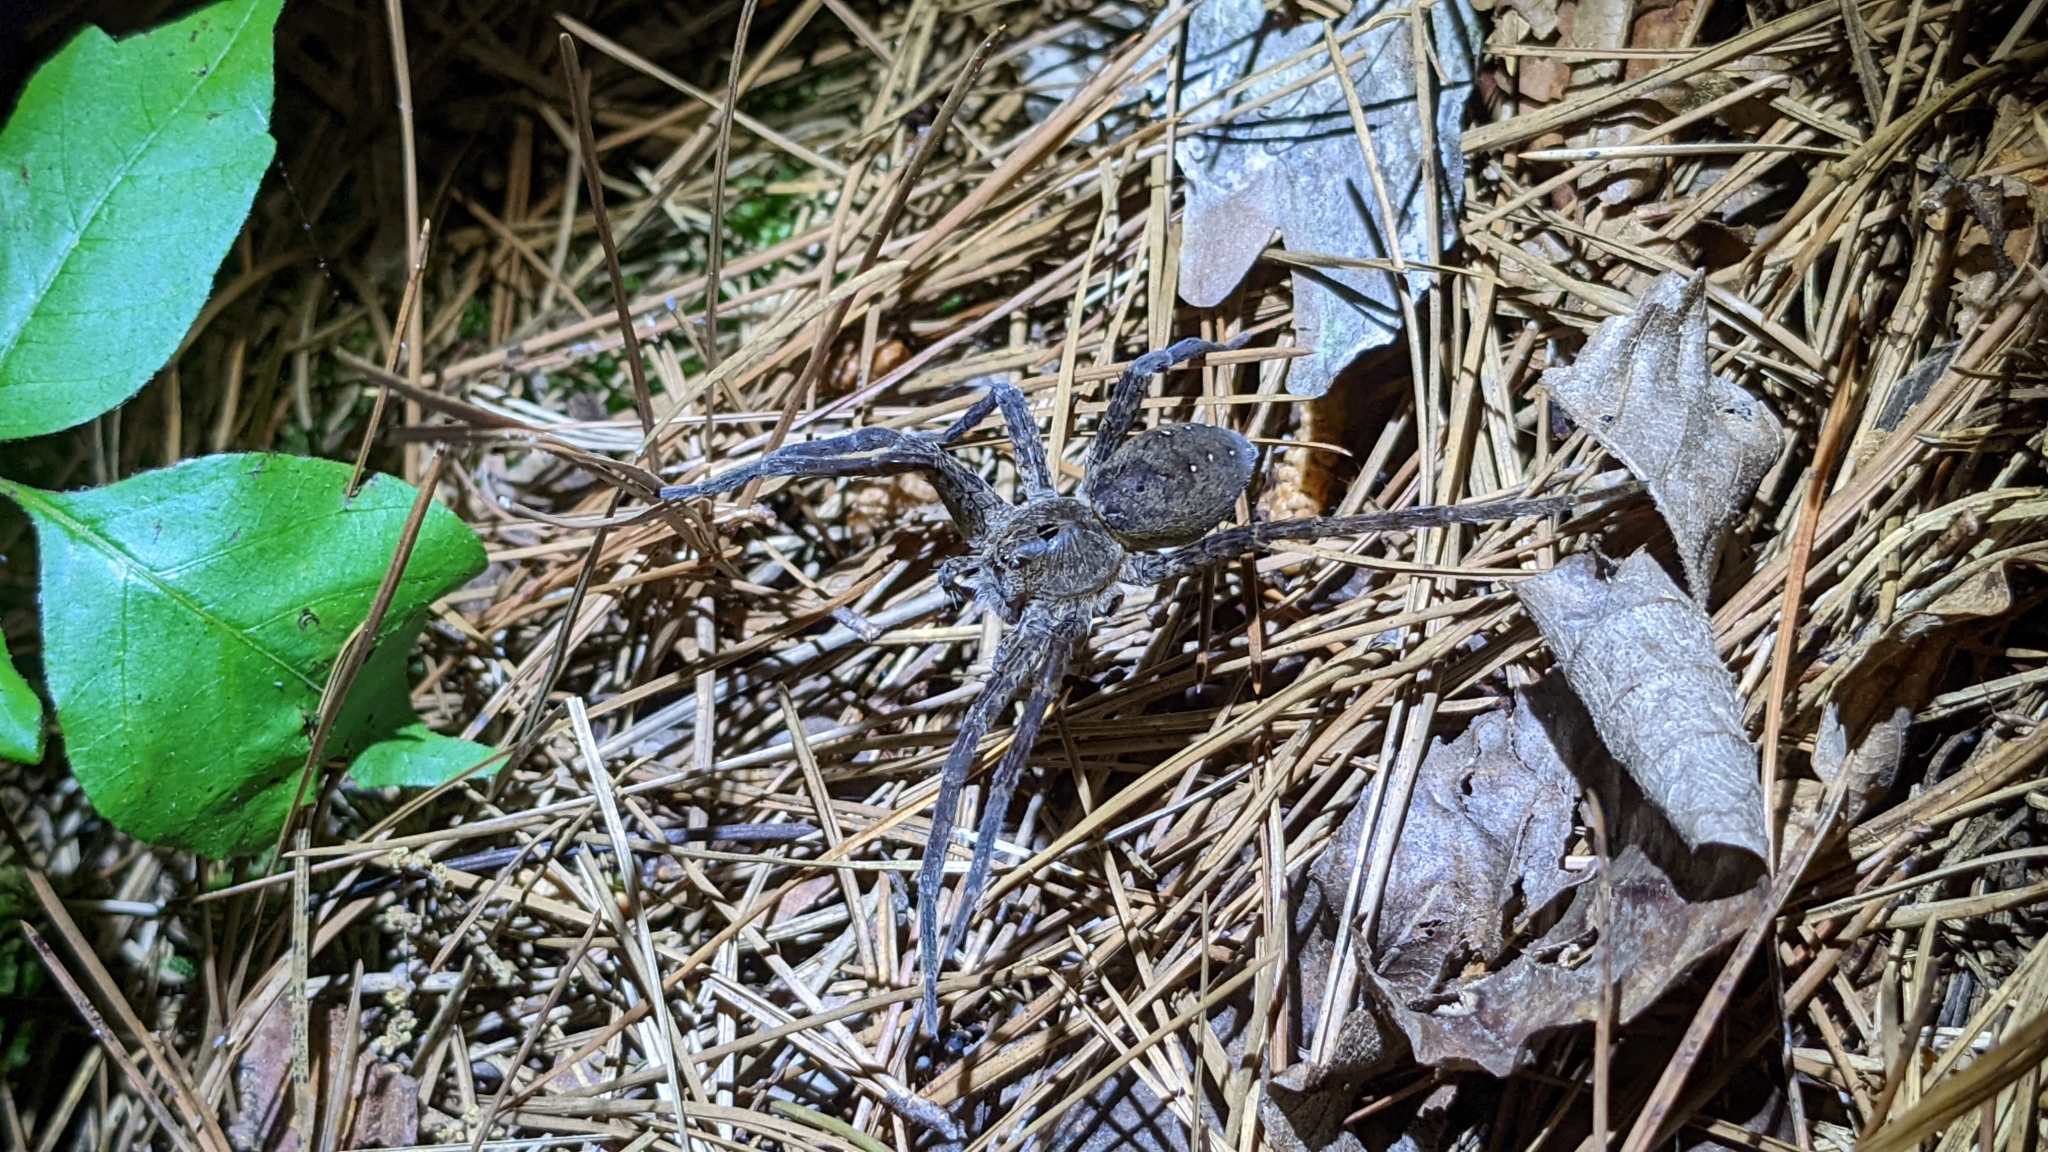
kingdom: Animalia
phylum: Arthropoda
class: Arachnida
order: Araneae
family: Pisauridae
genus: Dolomedes
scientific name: Dolomedes vittatus
